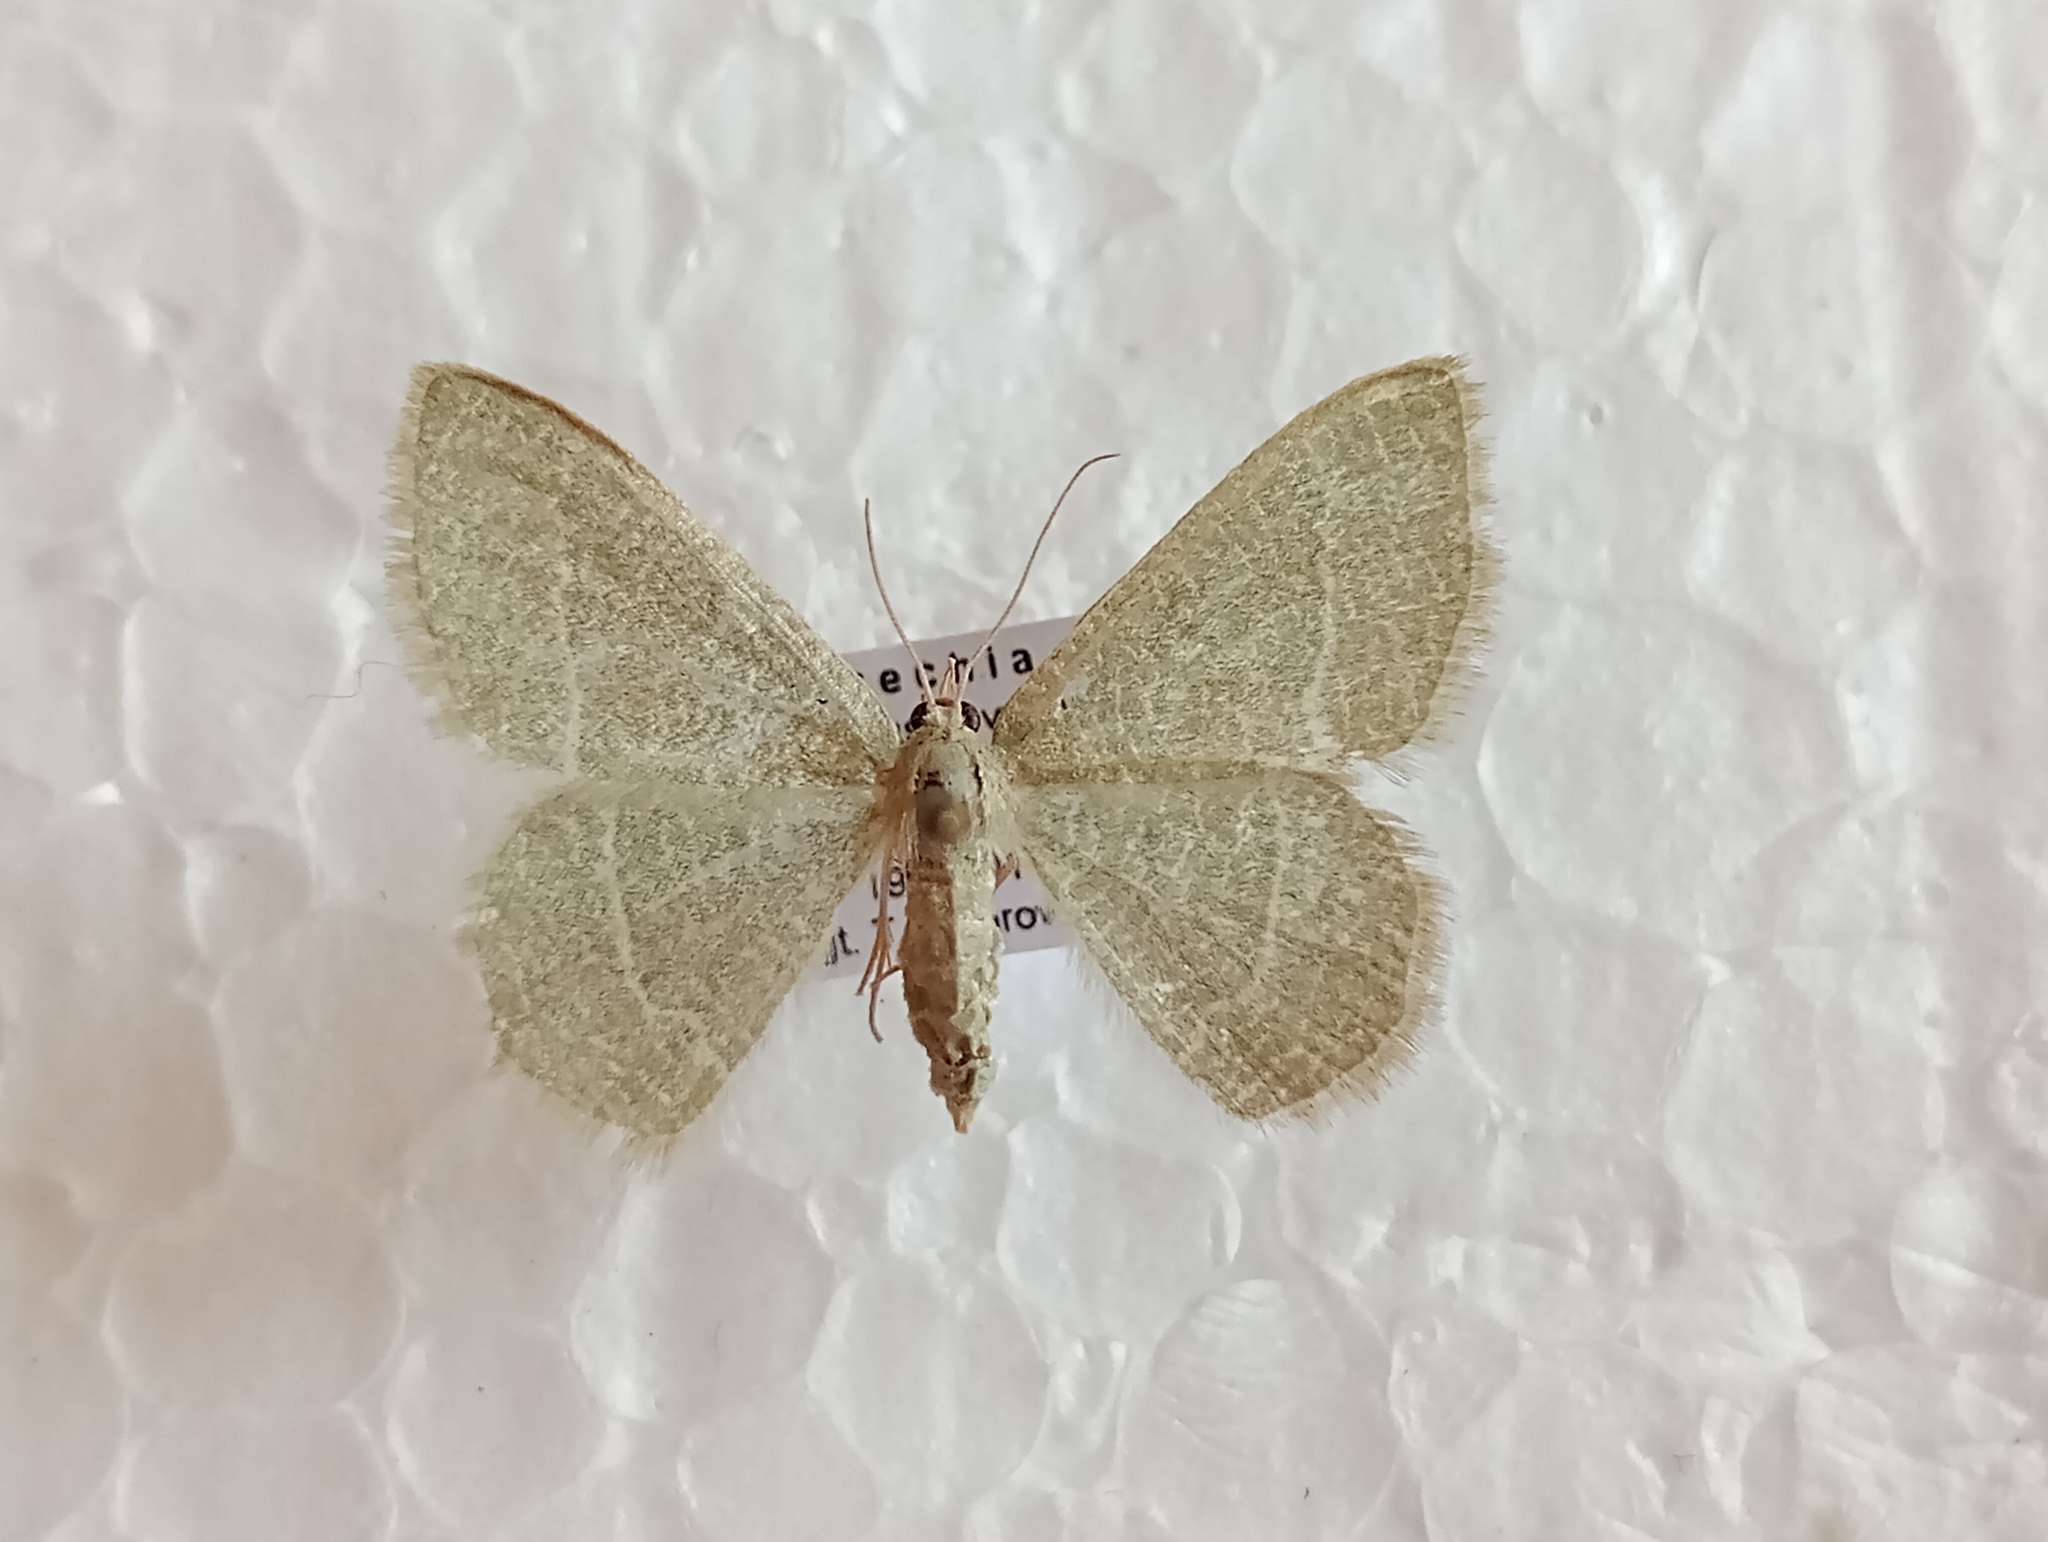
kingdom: Animalia
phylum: Arthropoda
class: Insecta
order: Lepidoptera
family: Geometridae
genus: Chlorissa
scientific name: Chlorissa etruscaria
